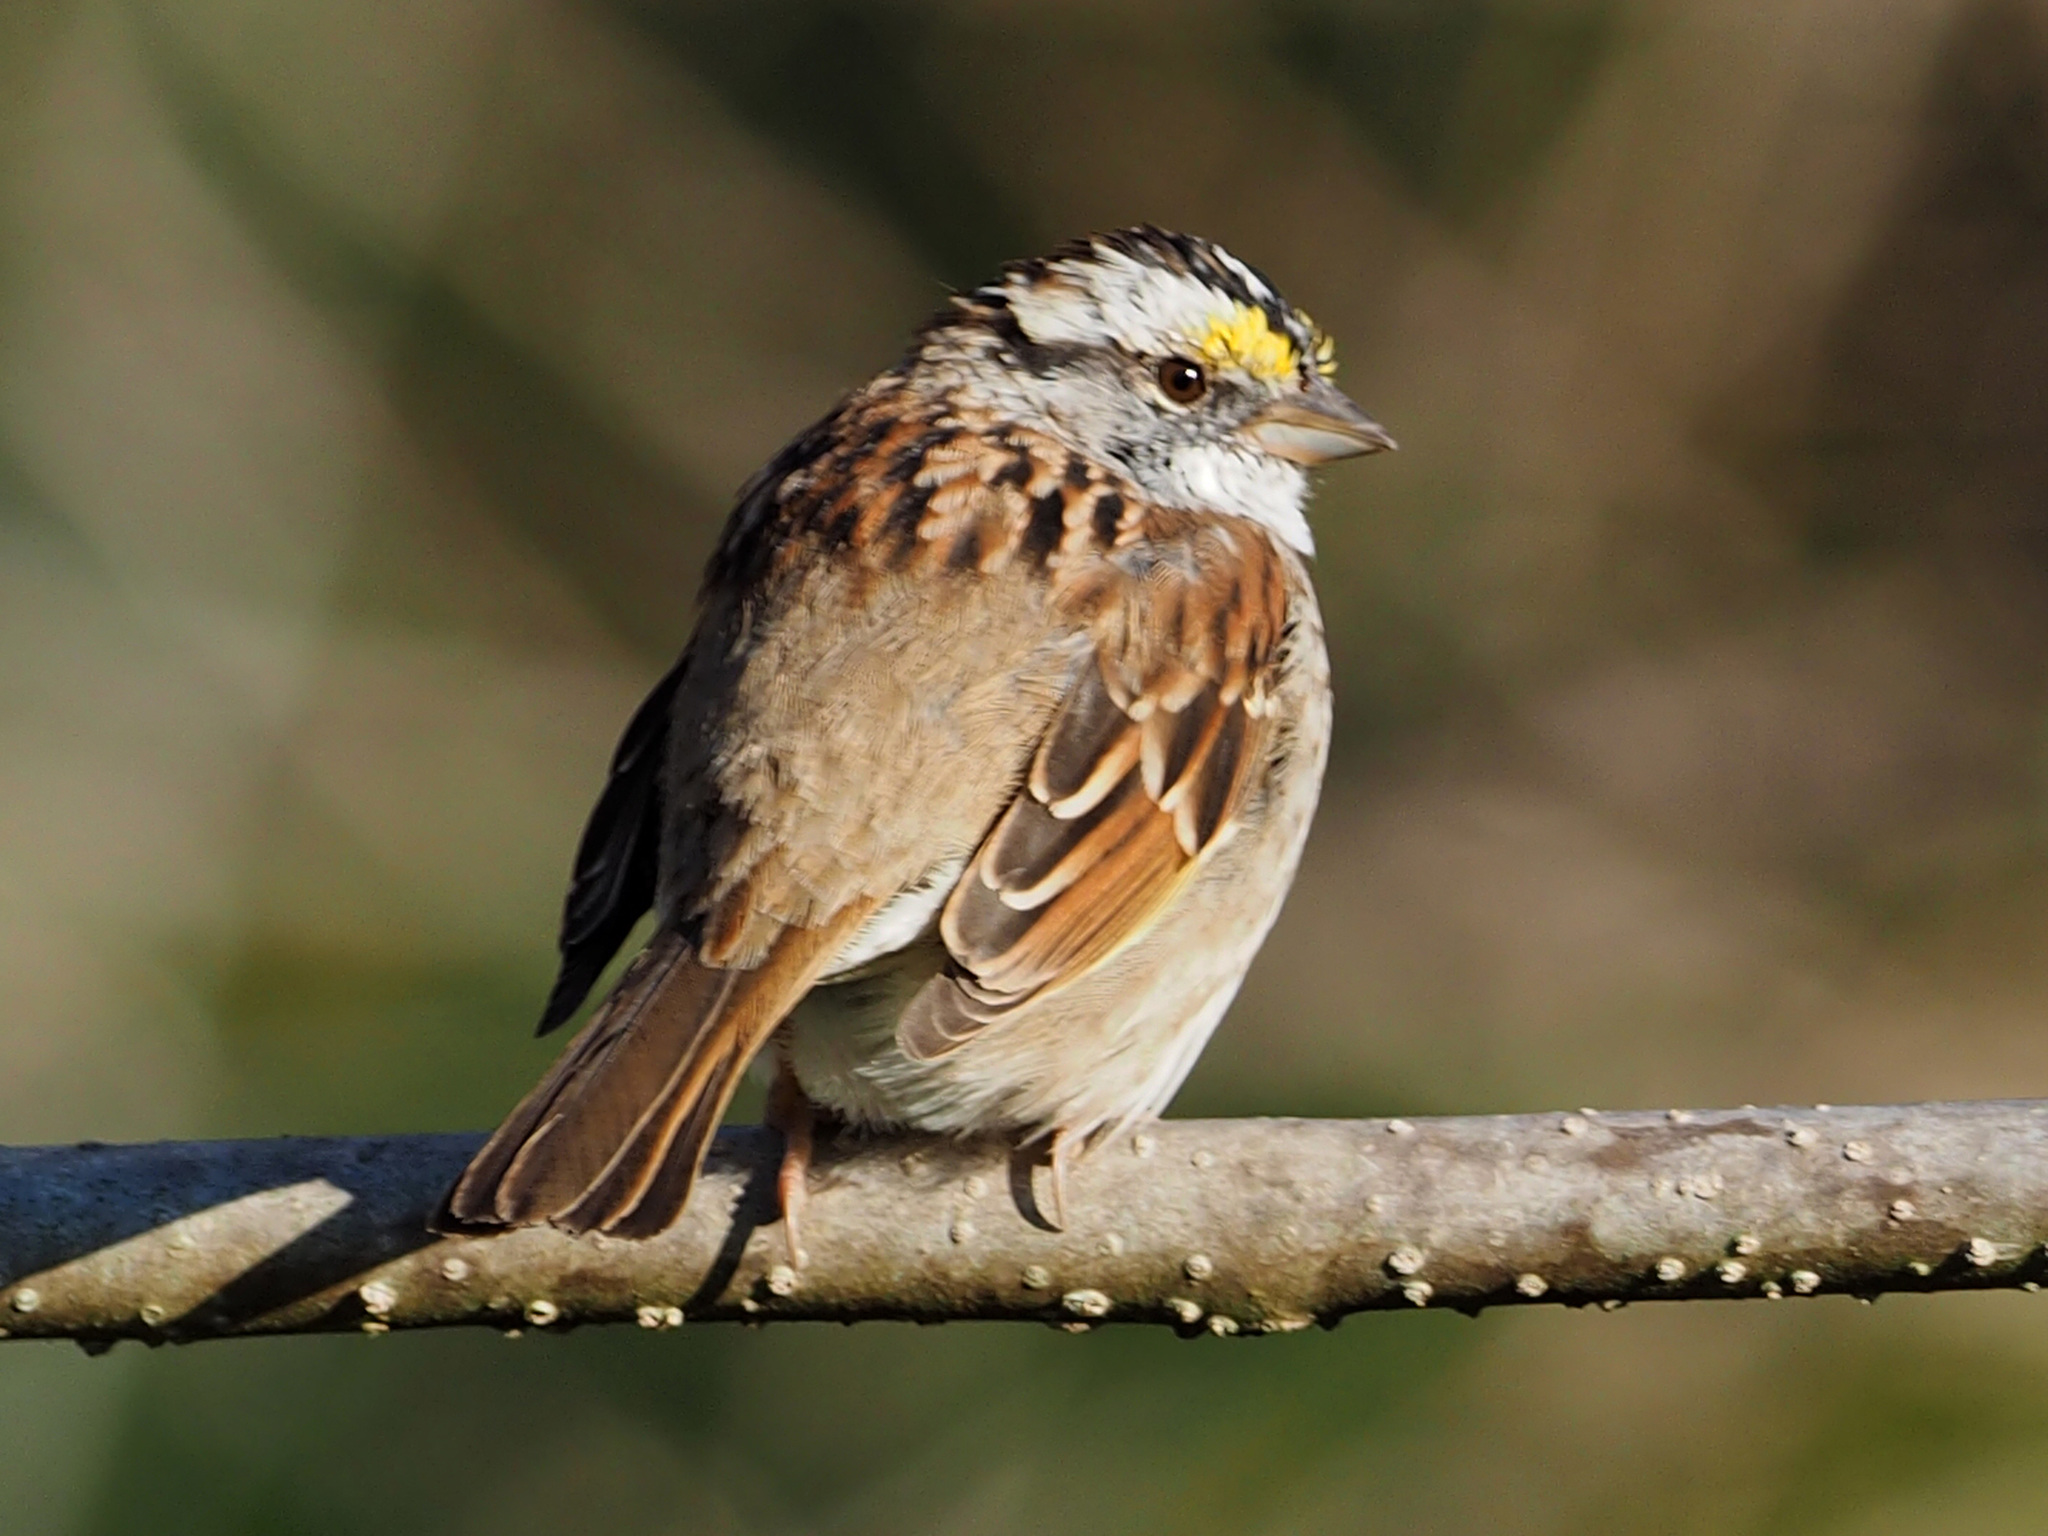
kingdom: Animalia
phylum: Chordata
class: Aves
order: Passeriformes
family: Passerellidae
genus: Zonotrichia
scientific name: Zonotrichia albicollis
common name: White-throated sparrow
